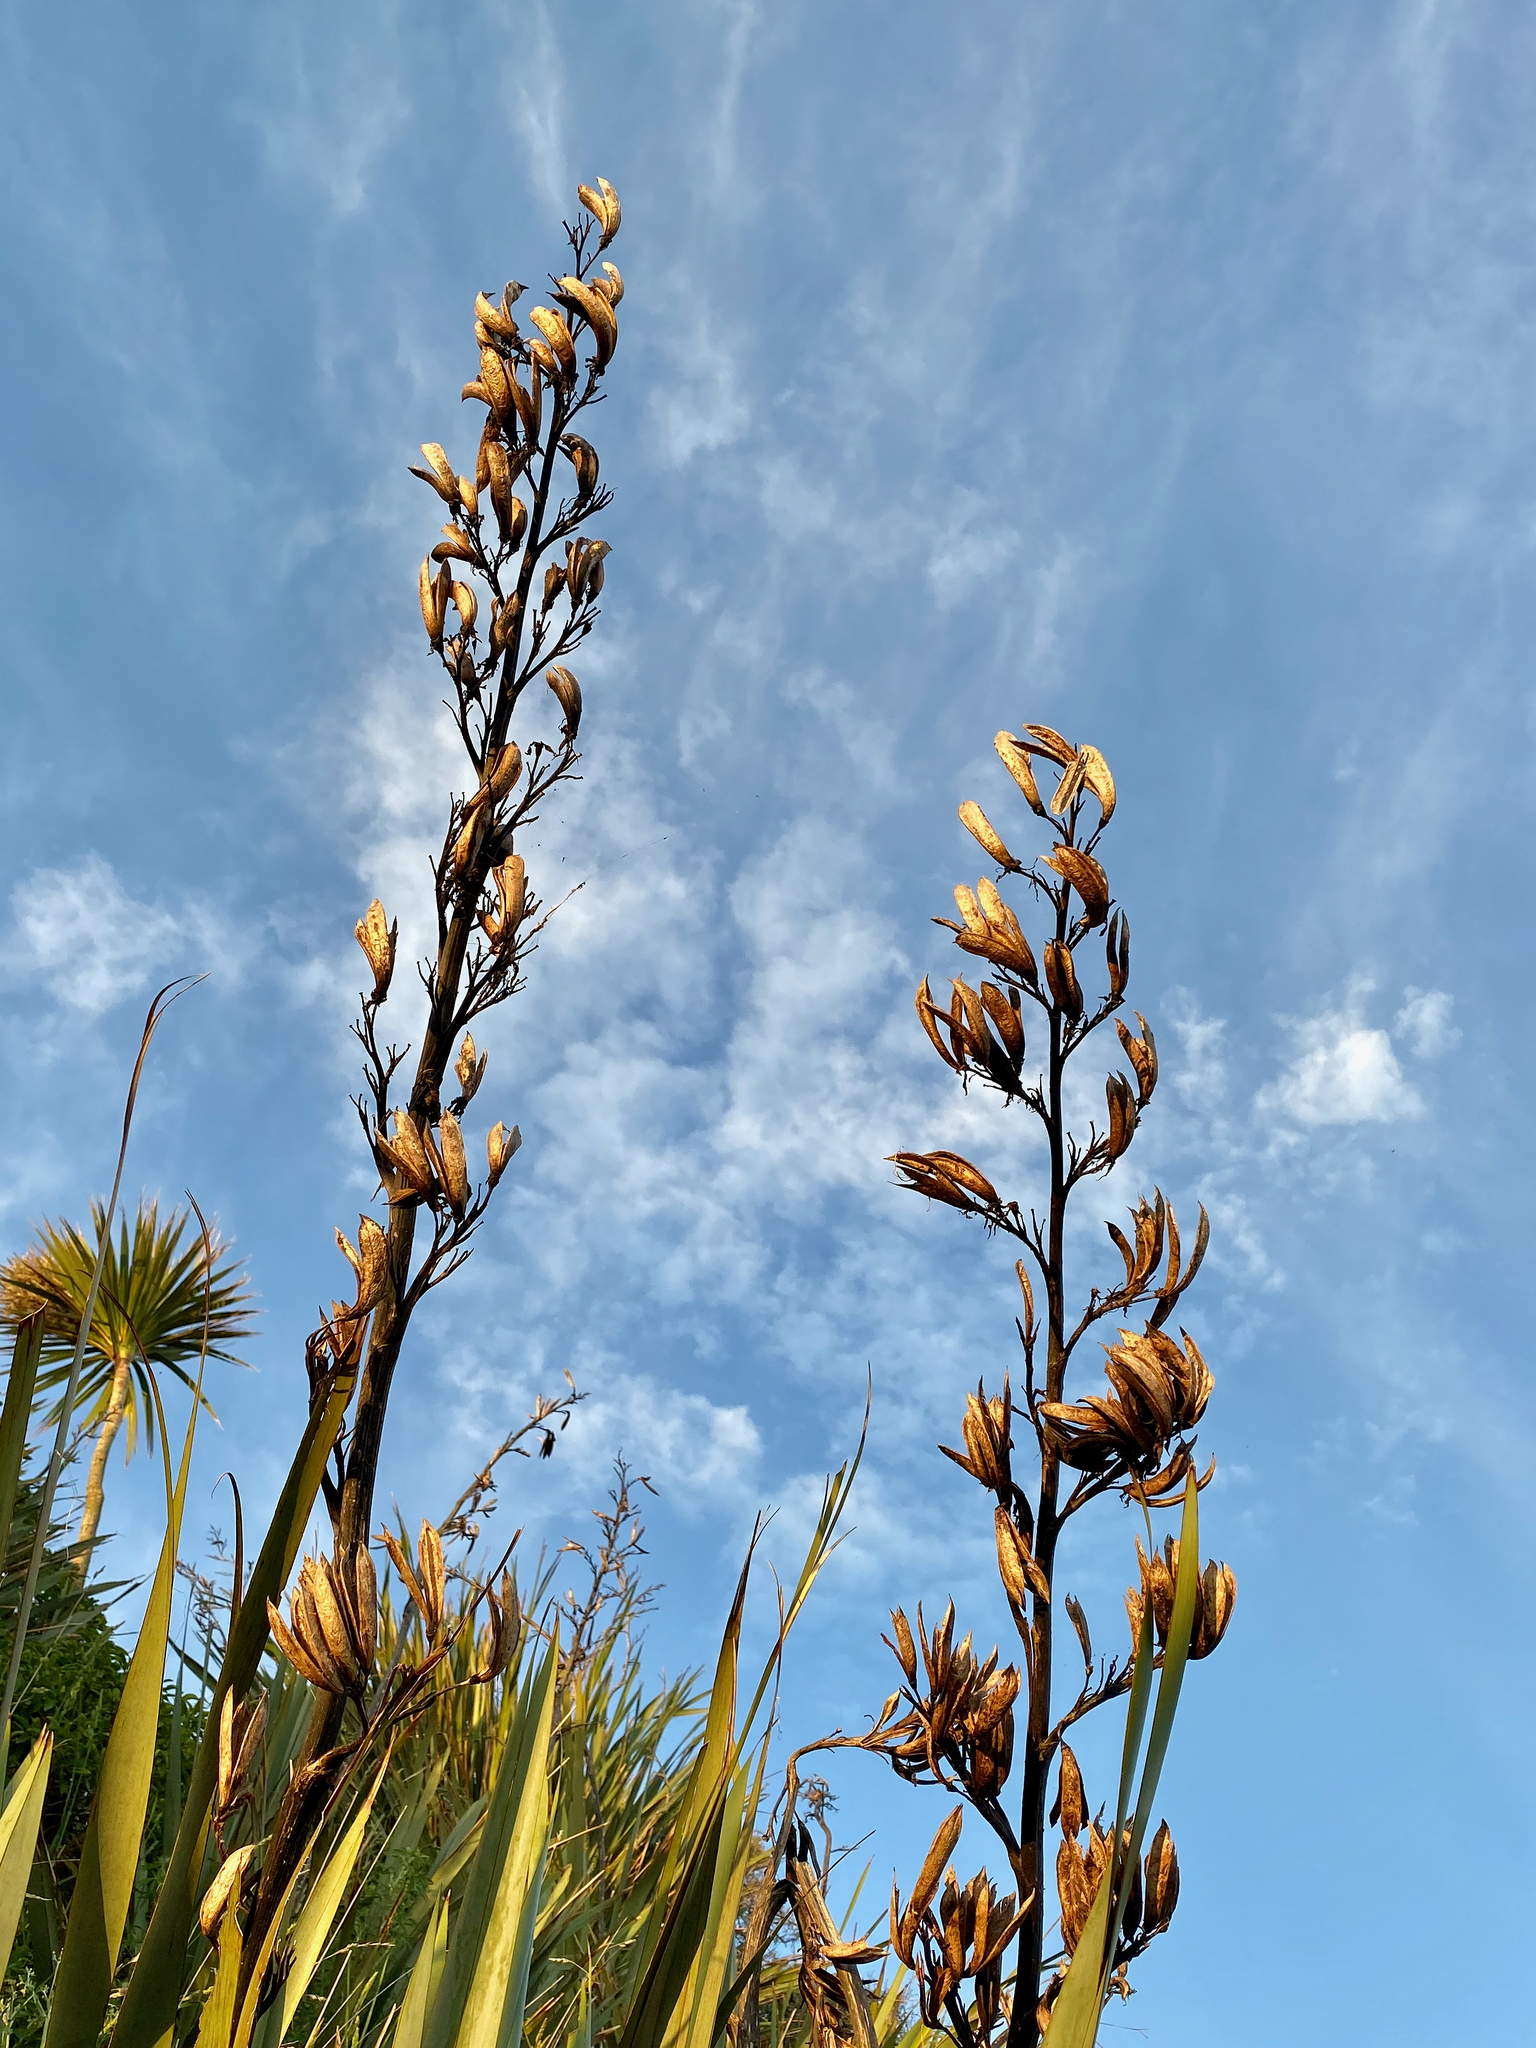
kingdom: Plantae
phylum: Tracheophyta
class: Liliopsida
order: Asparagales
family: Asphodelaceae
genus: Phormium
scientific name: Phormium tenax
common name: New zealand flax
